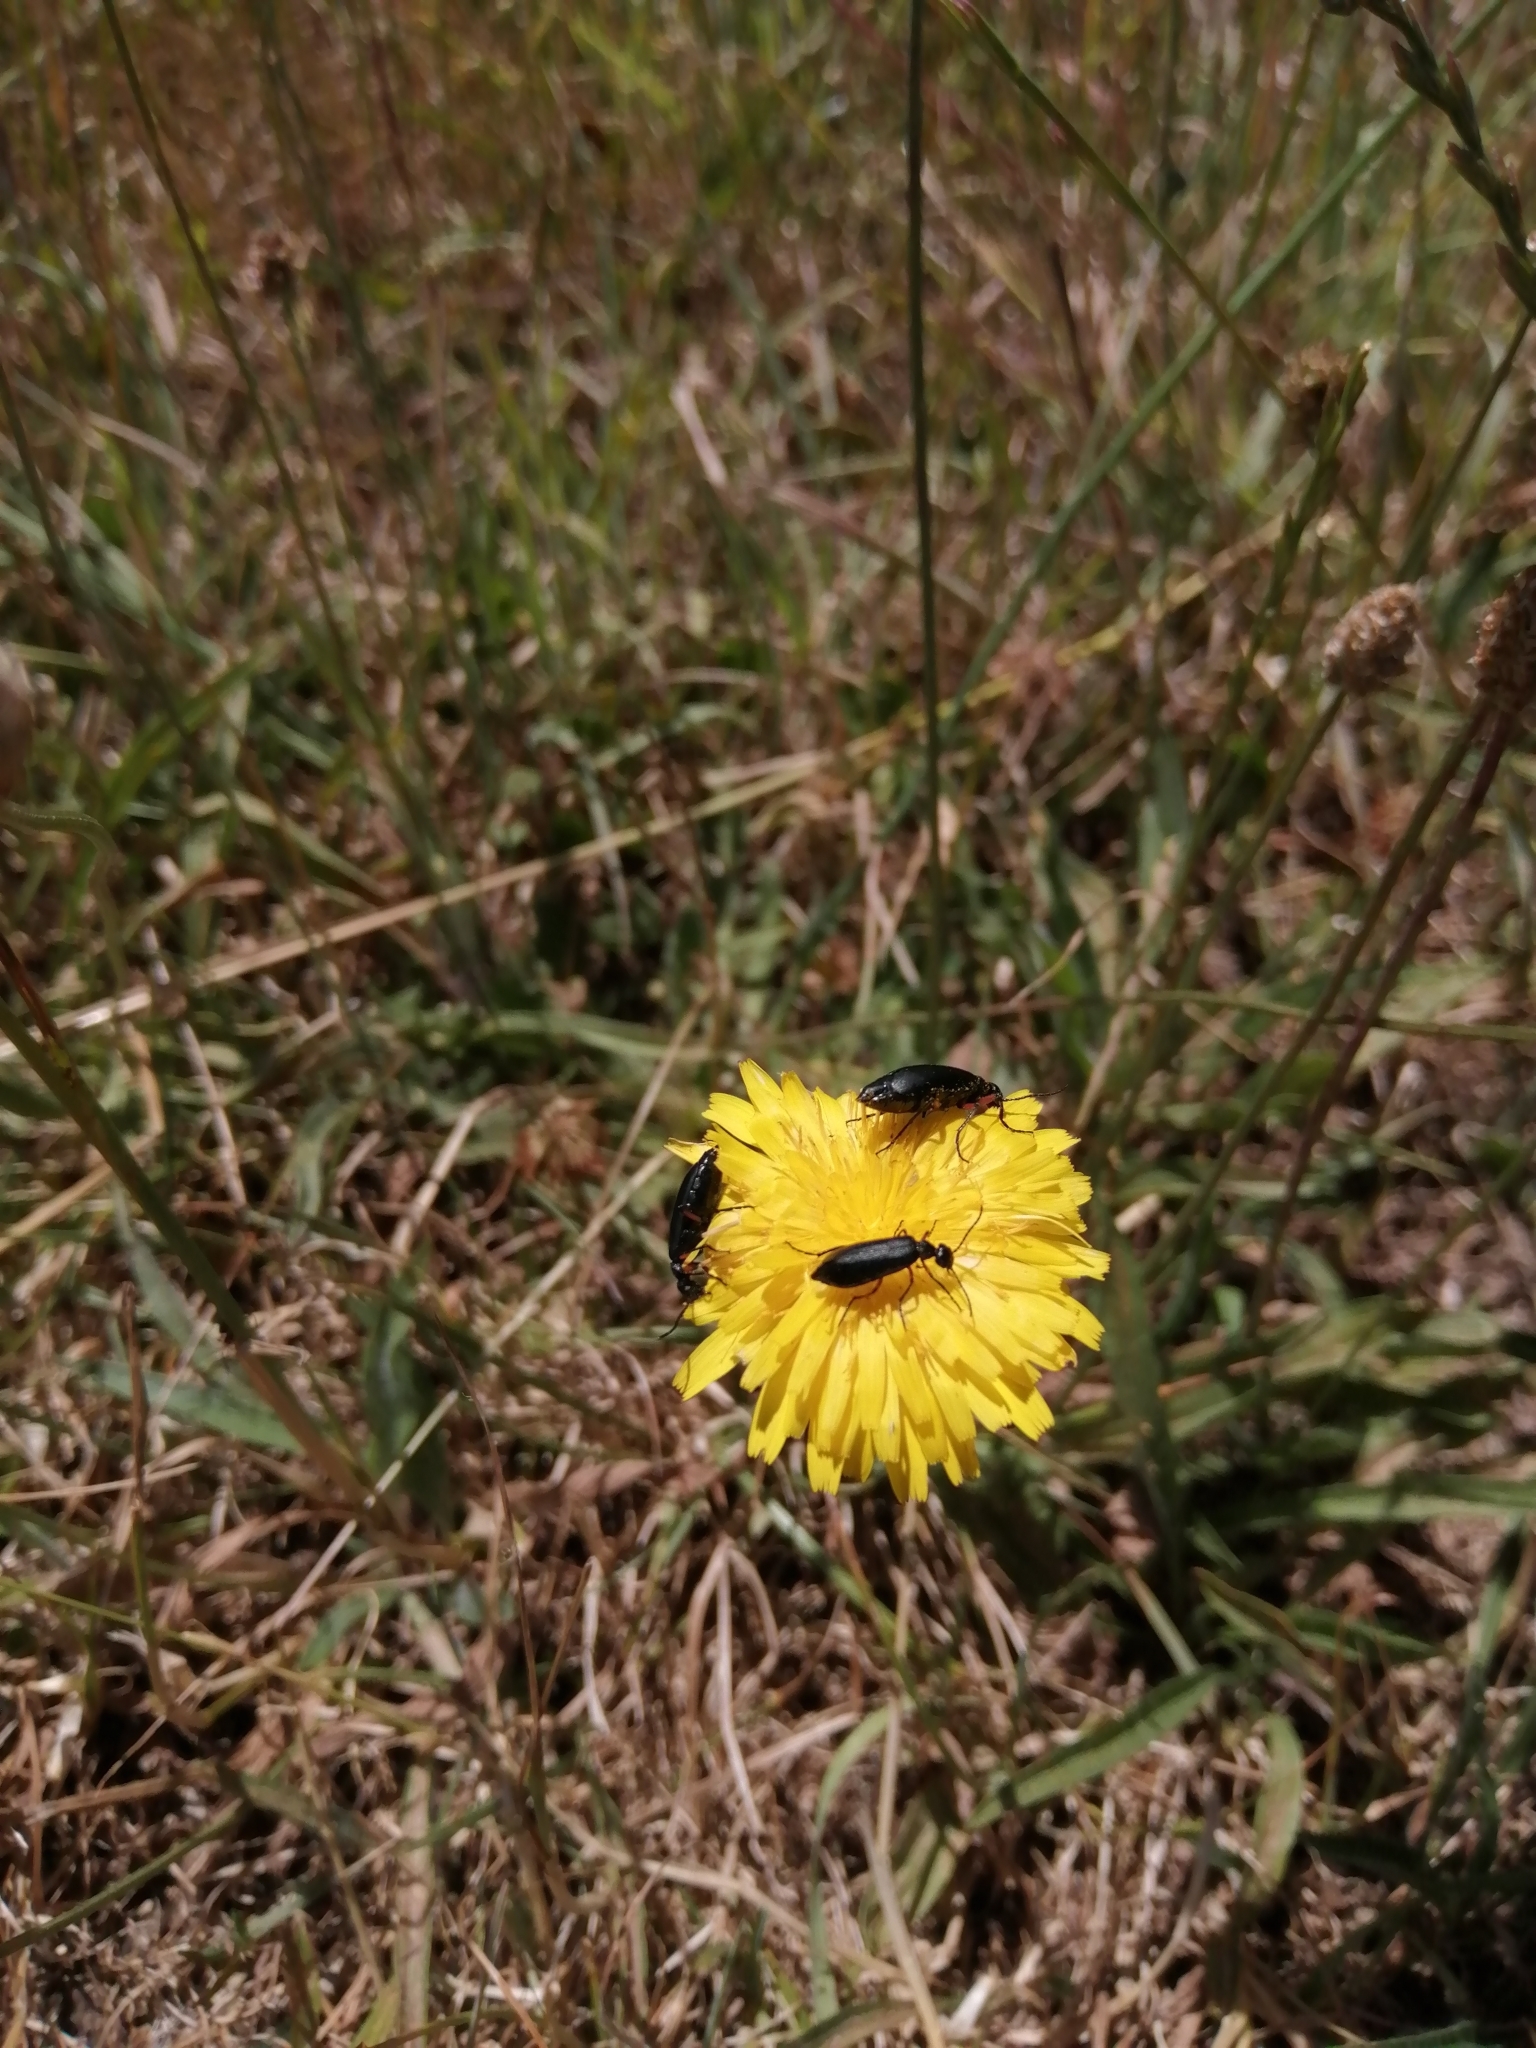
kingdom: Animalia
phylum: Arthropoda
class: Insecta
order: Coleoptera
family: Meloidae
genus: Epicauta
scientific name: Epicauta
